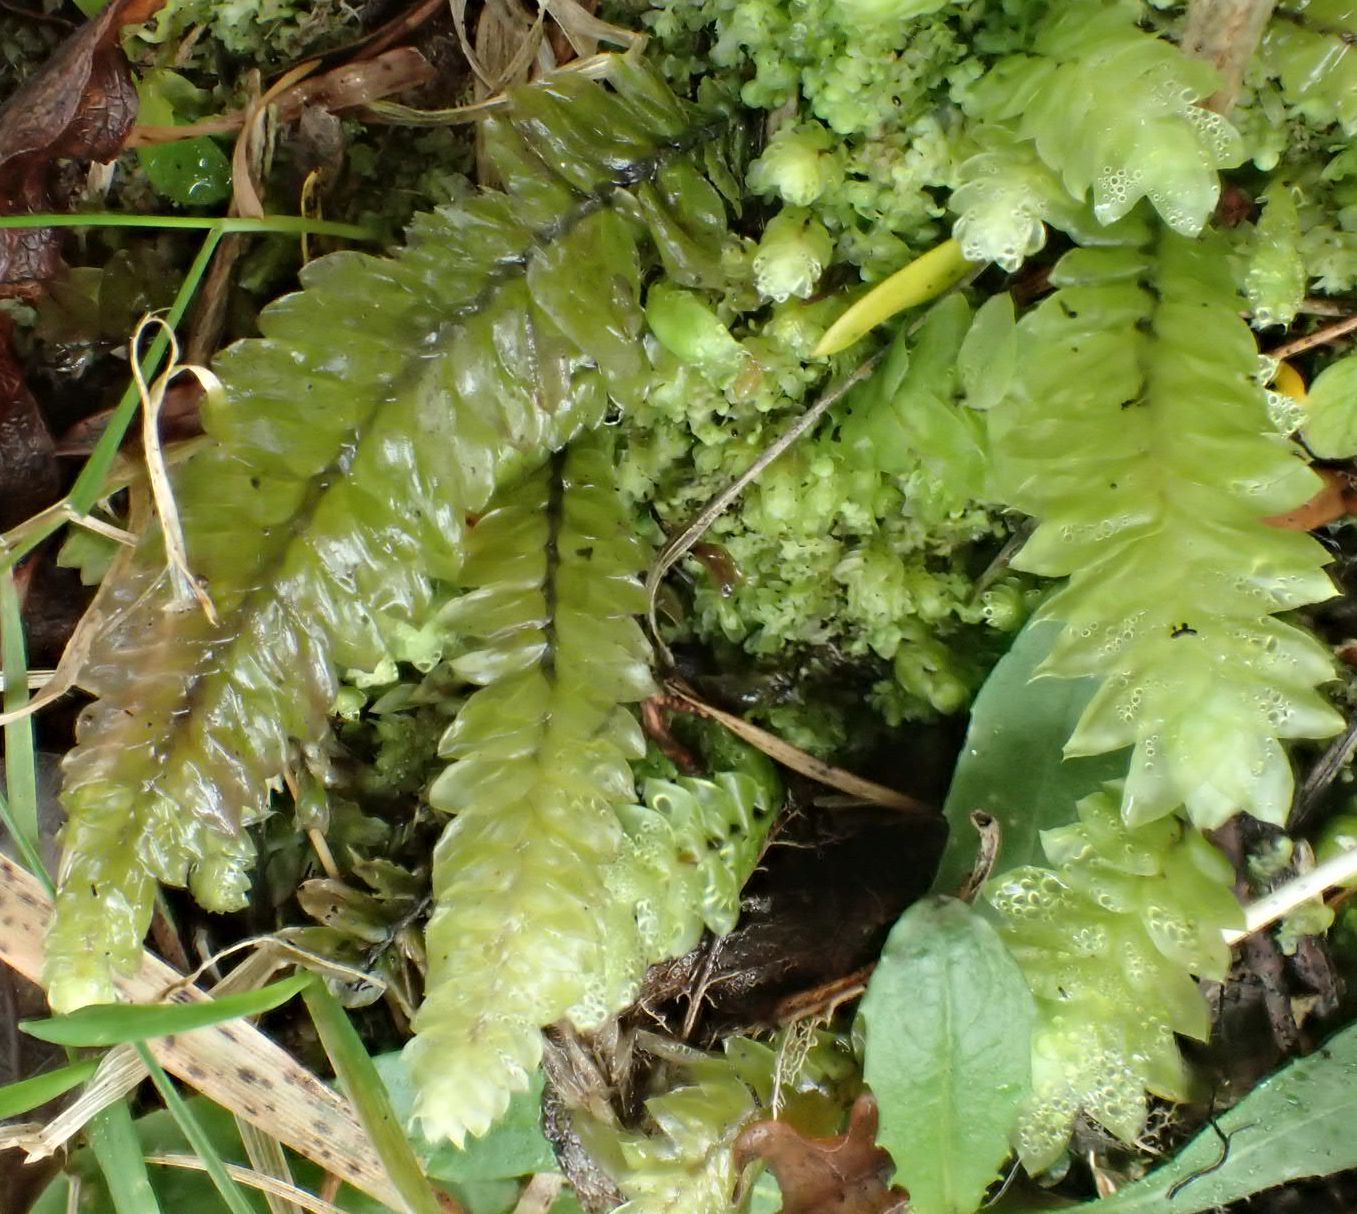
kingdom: Plantae
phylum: Bryophyta
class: Bryopsida
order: Hypopterygiales
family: Hypopterygiaceae
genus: Cyathophorum
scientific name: Cyathophorum bulbosum
